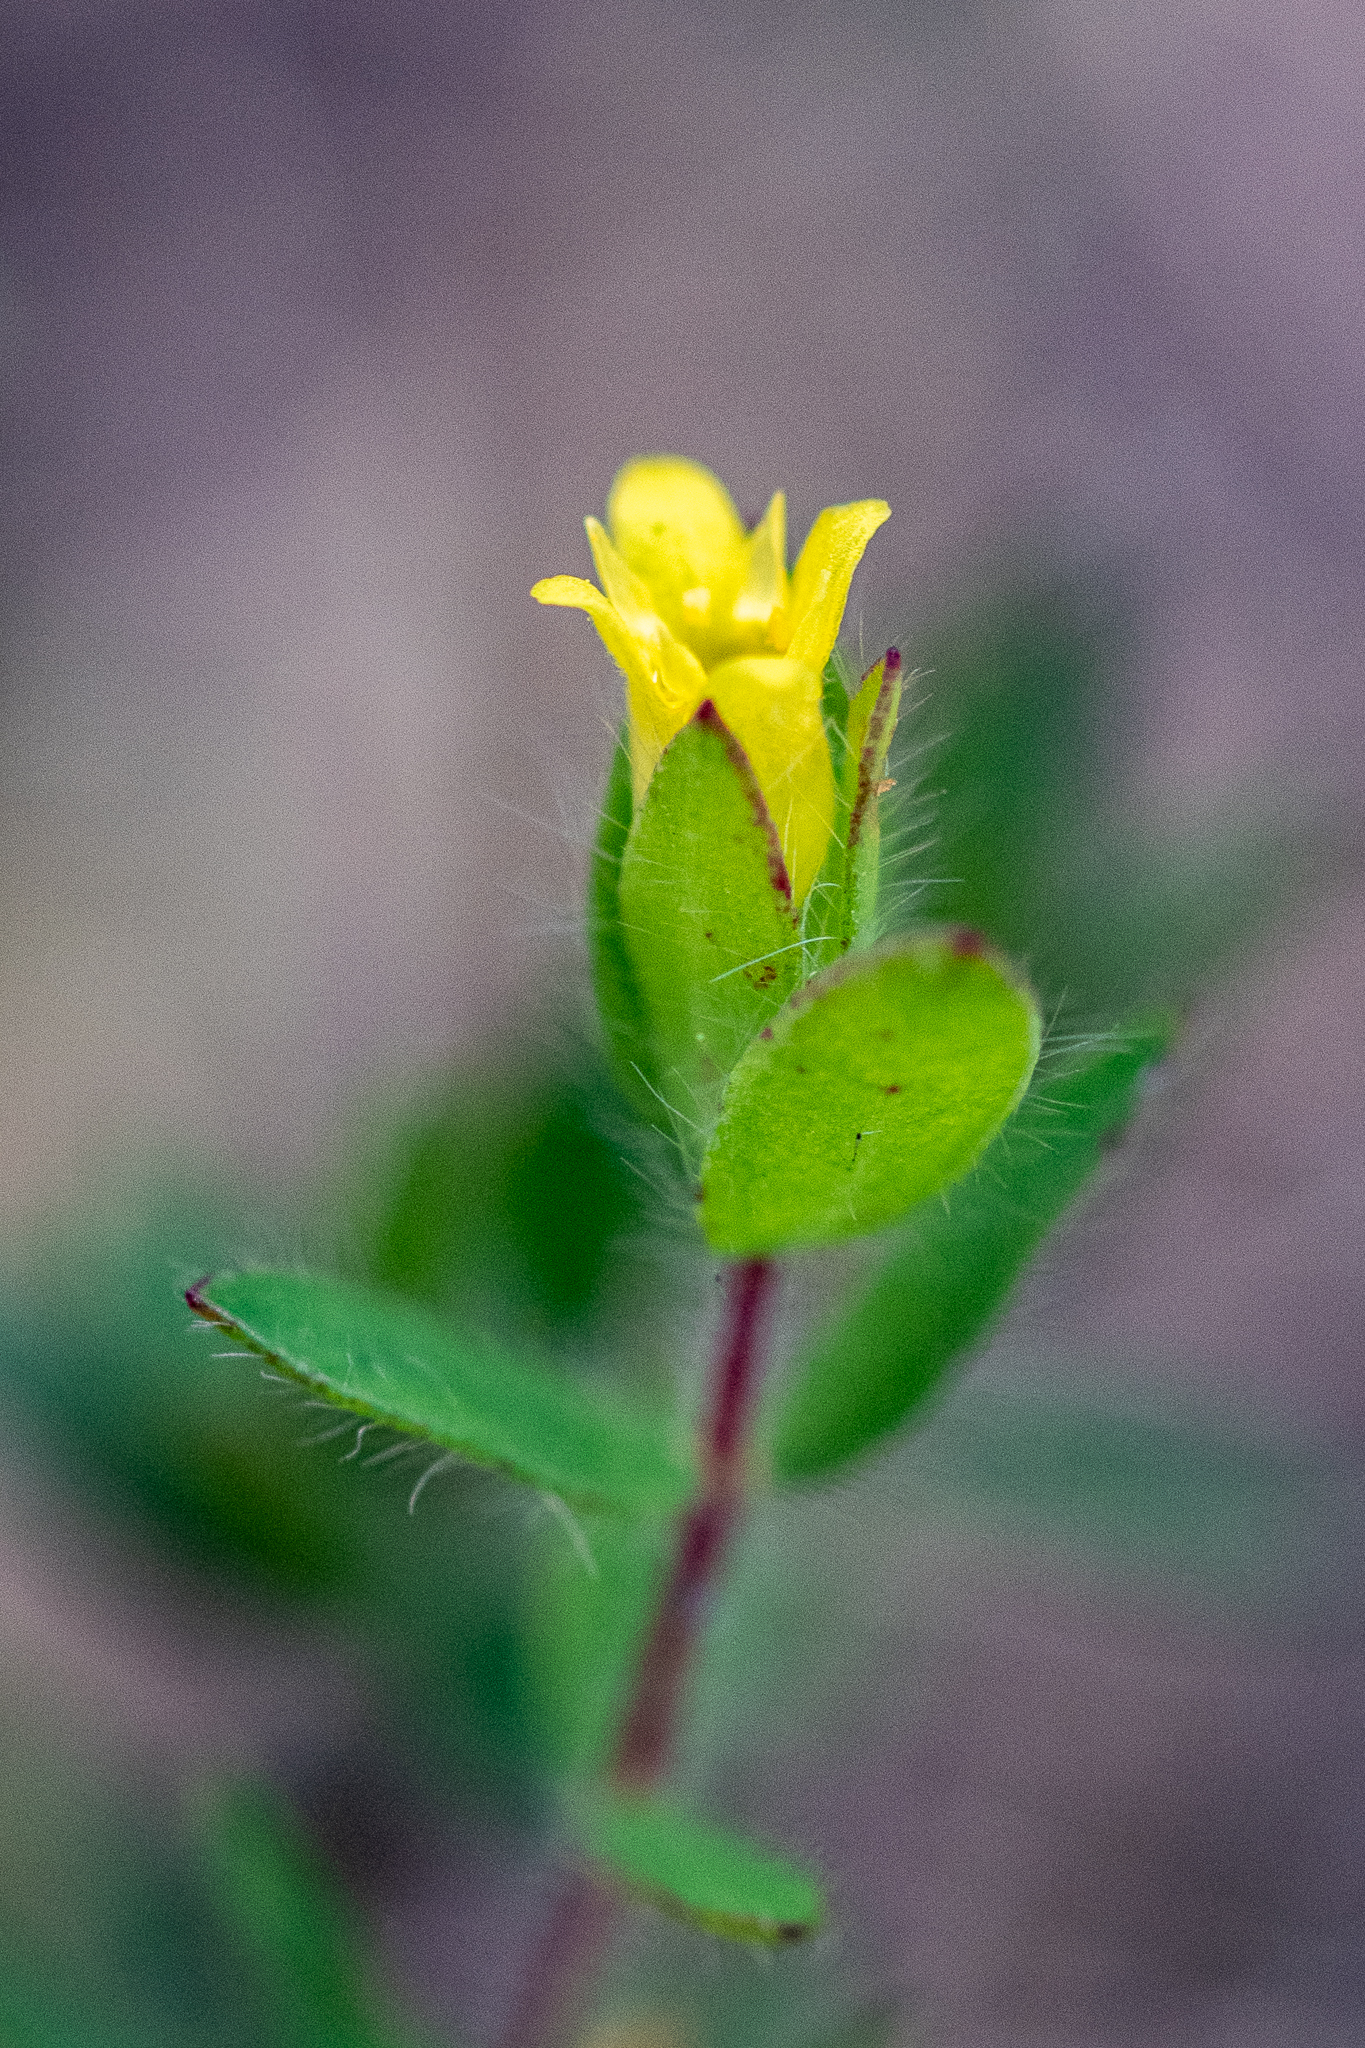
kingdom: Plantae
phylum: Tracheophyta
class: Magnoliopsida
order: Malvales
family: Thymelaeaceae
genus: Gnidia
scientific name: Gnidia humilis
